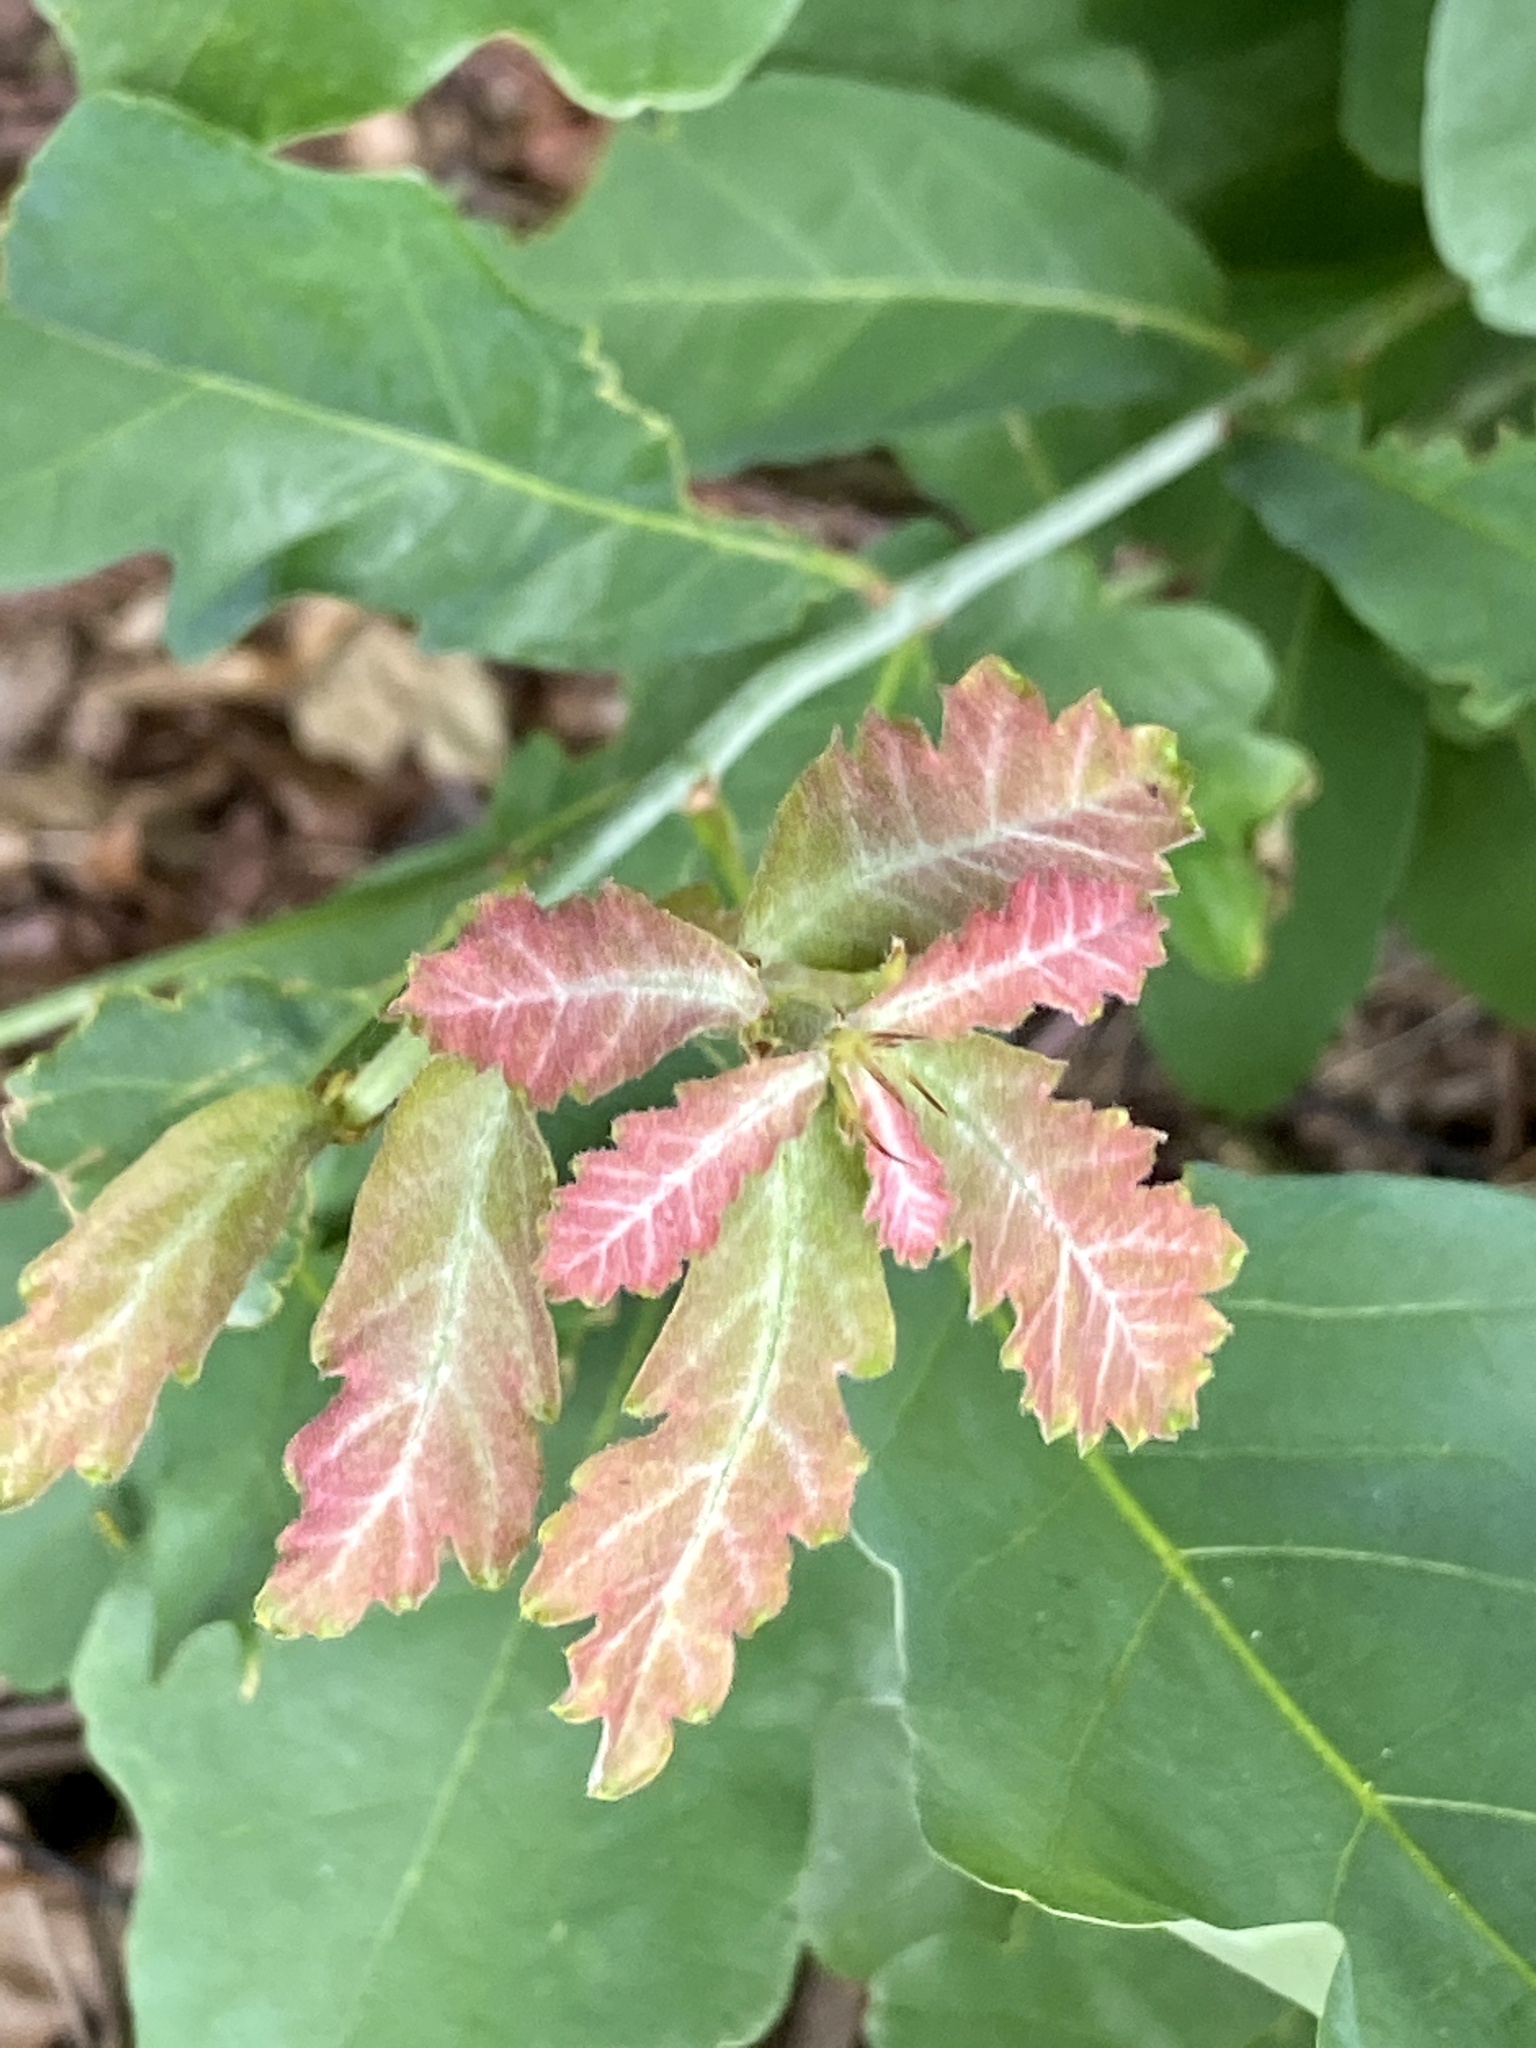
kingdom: Plantae
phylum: Tracheophyta
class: Magnoliopsida
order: Fagales
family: Fagaceae
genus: Quercus
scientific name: Quercus alba
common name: White oak
